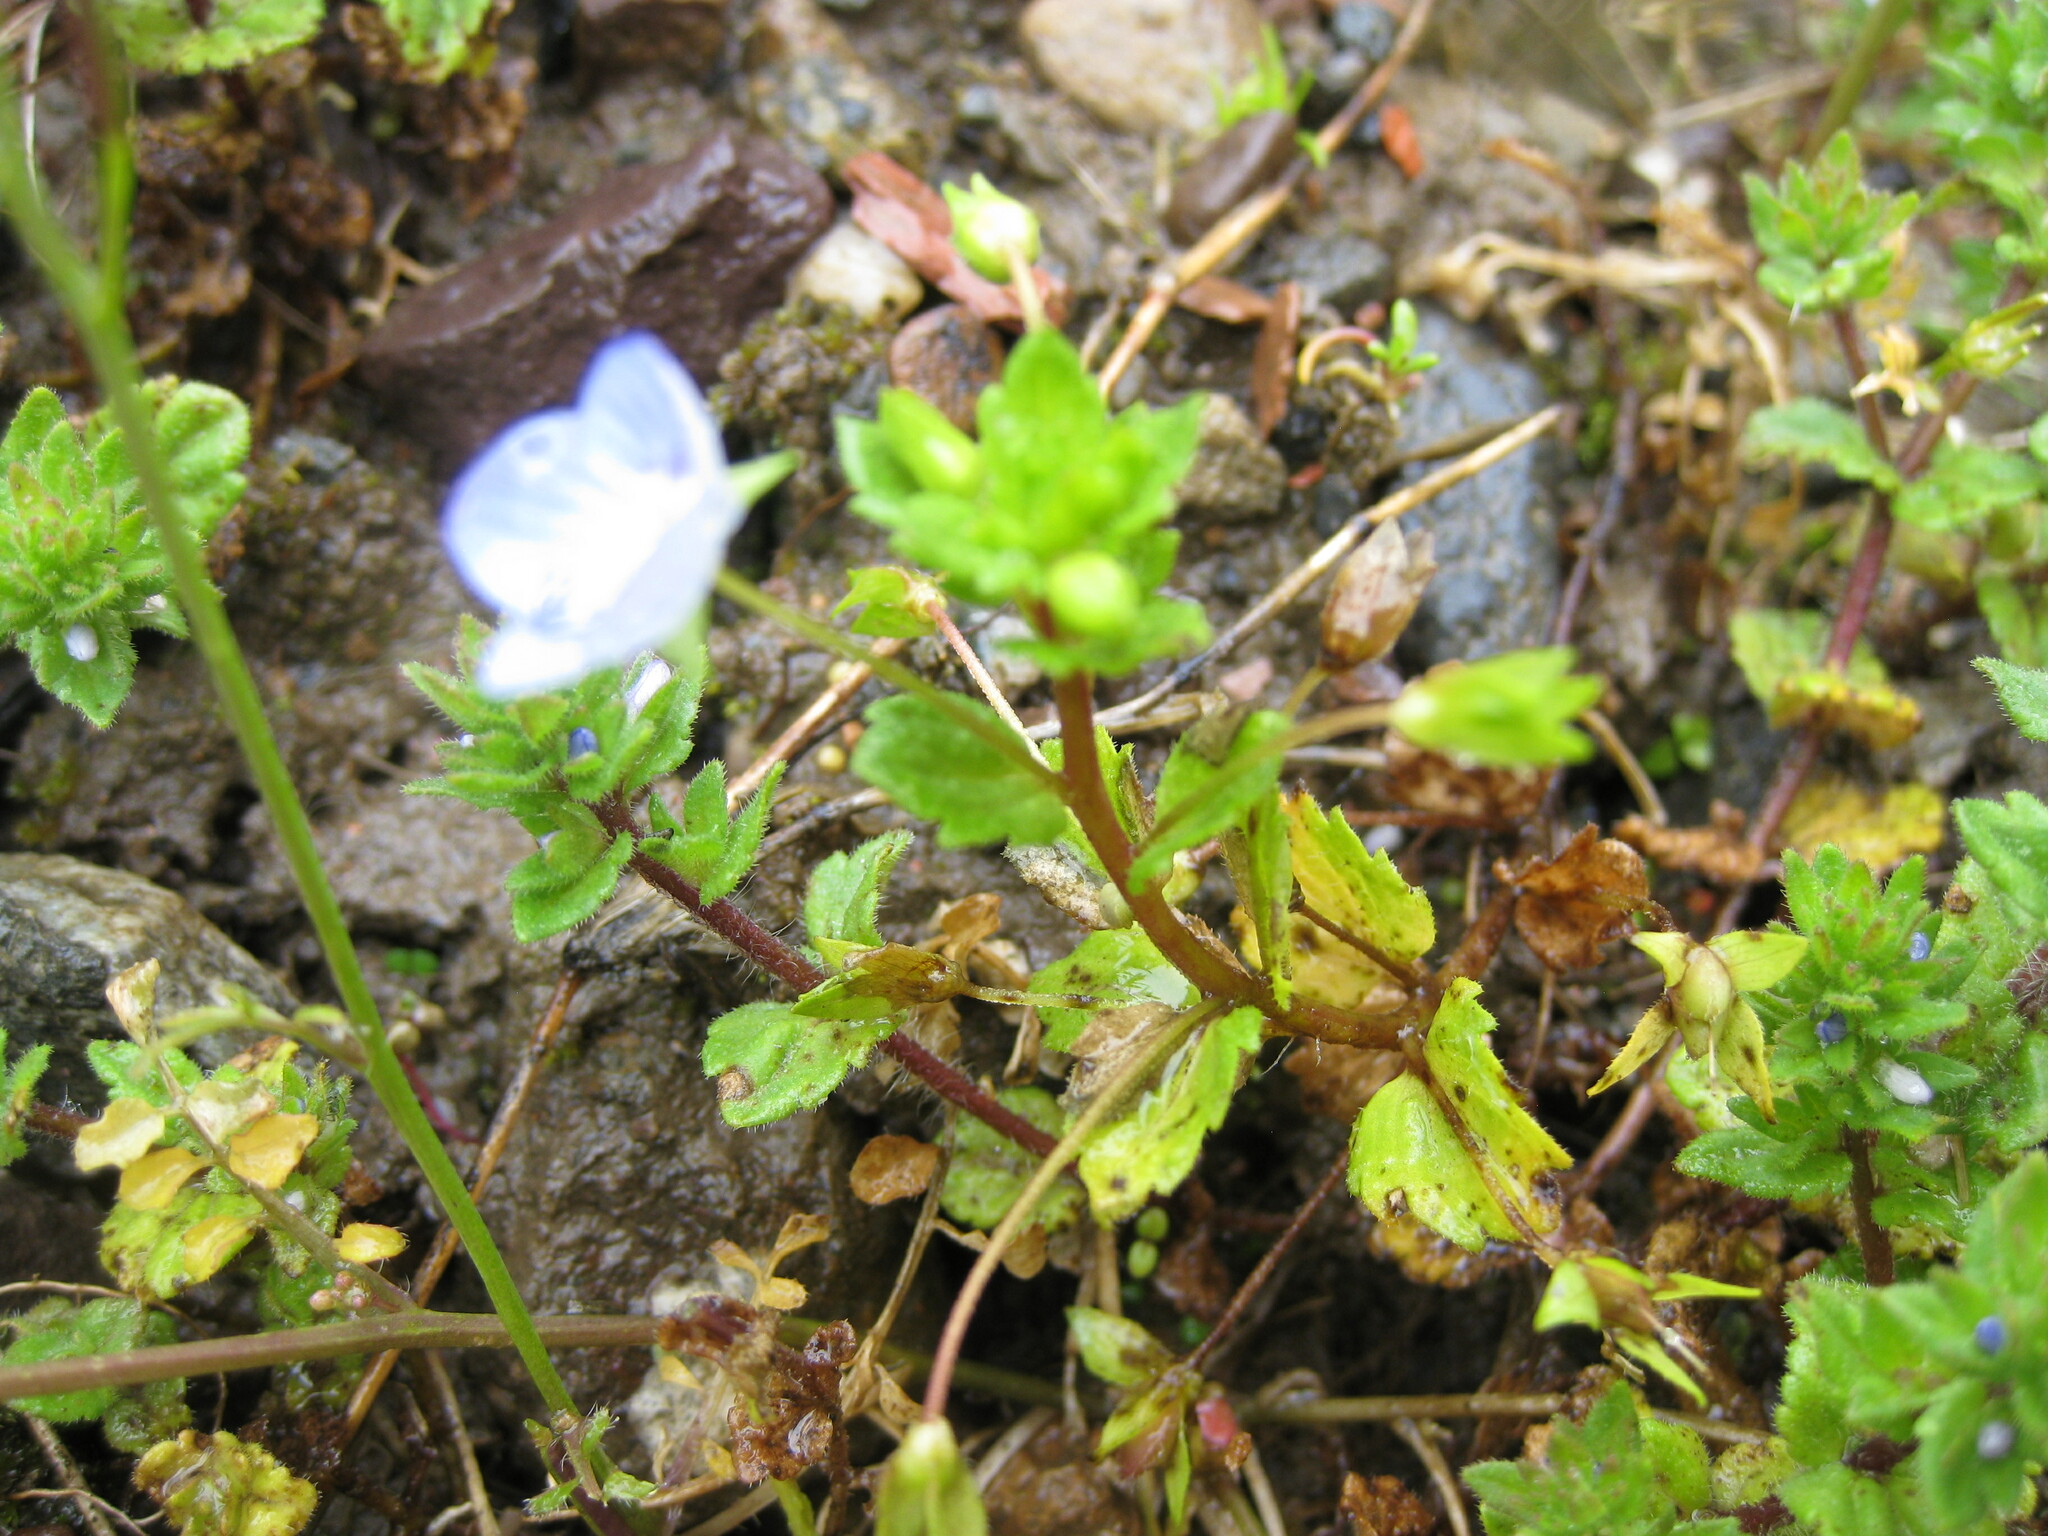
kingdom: Plantae
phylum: Tracheophyta
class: Magnoliopsida
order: Lamiales
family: Plantaginaceae
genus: Veronica
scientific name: Veronica persica
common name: Common field-speedwell
